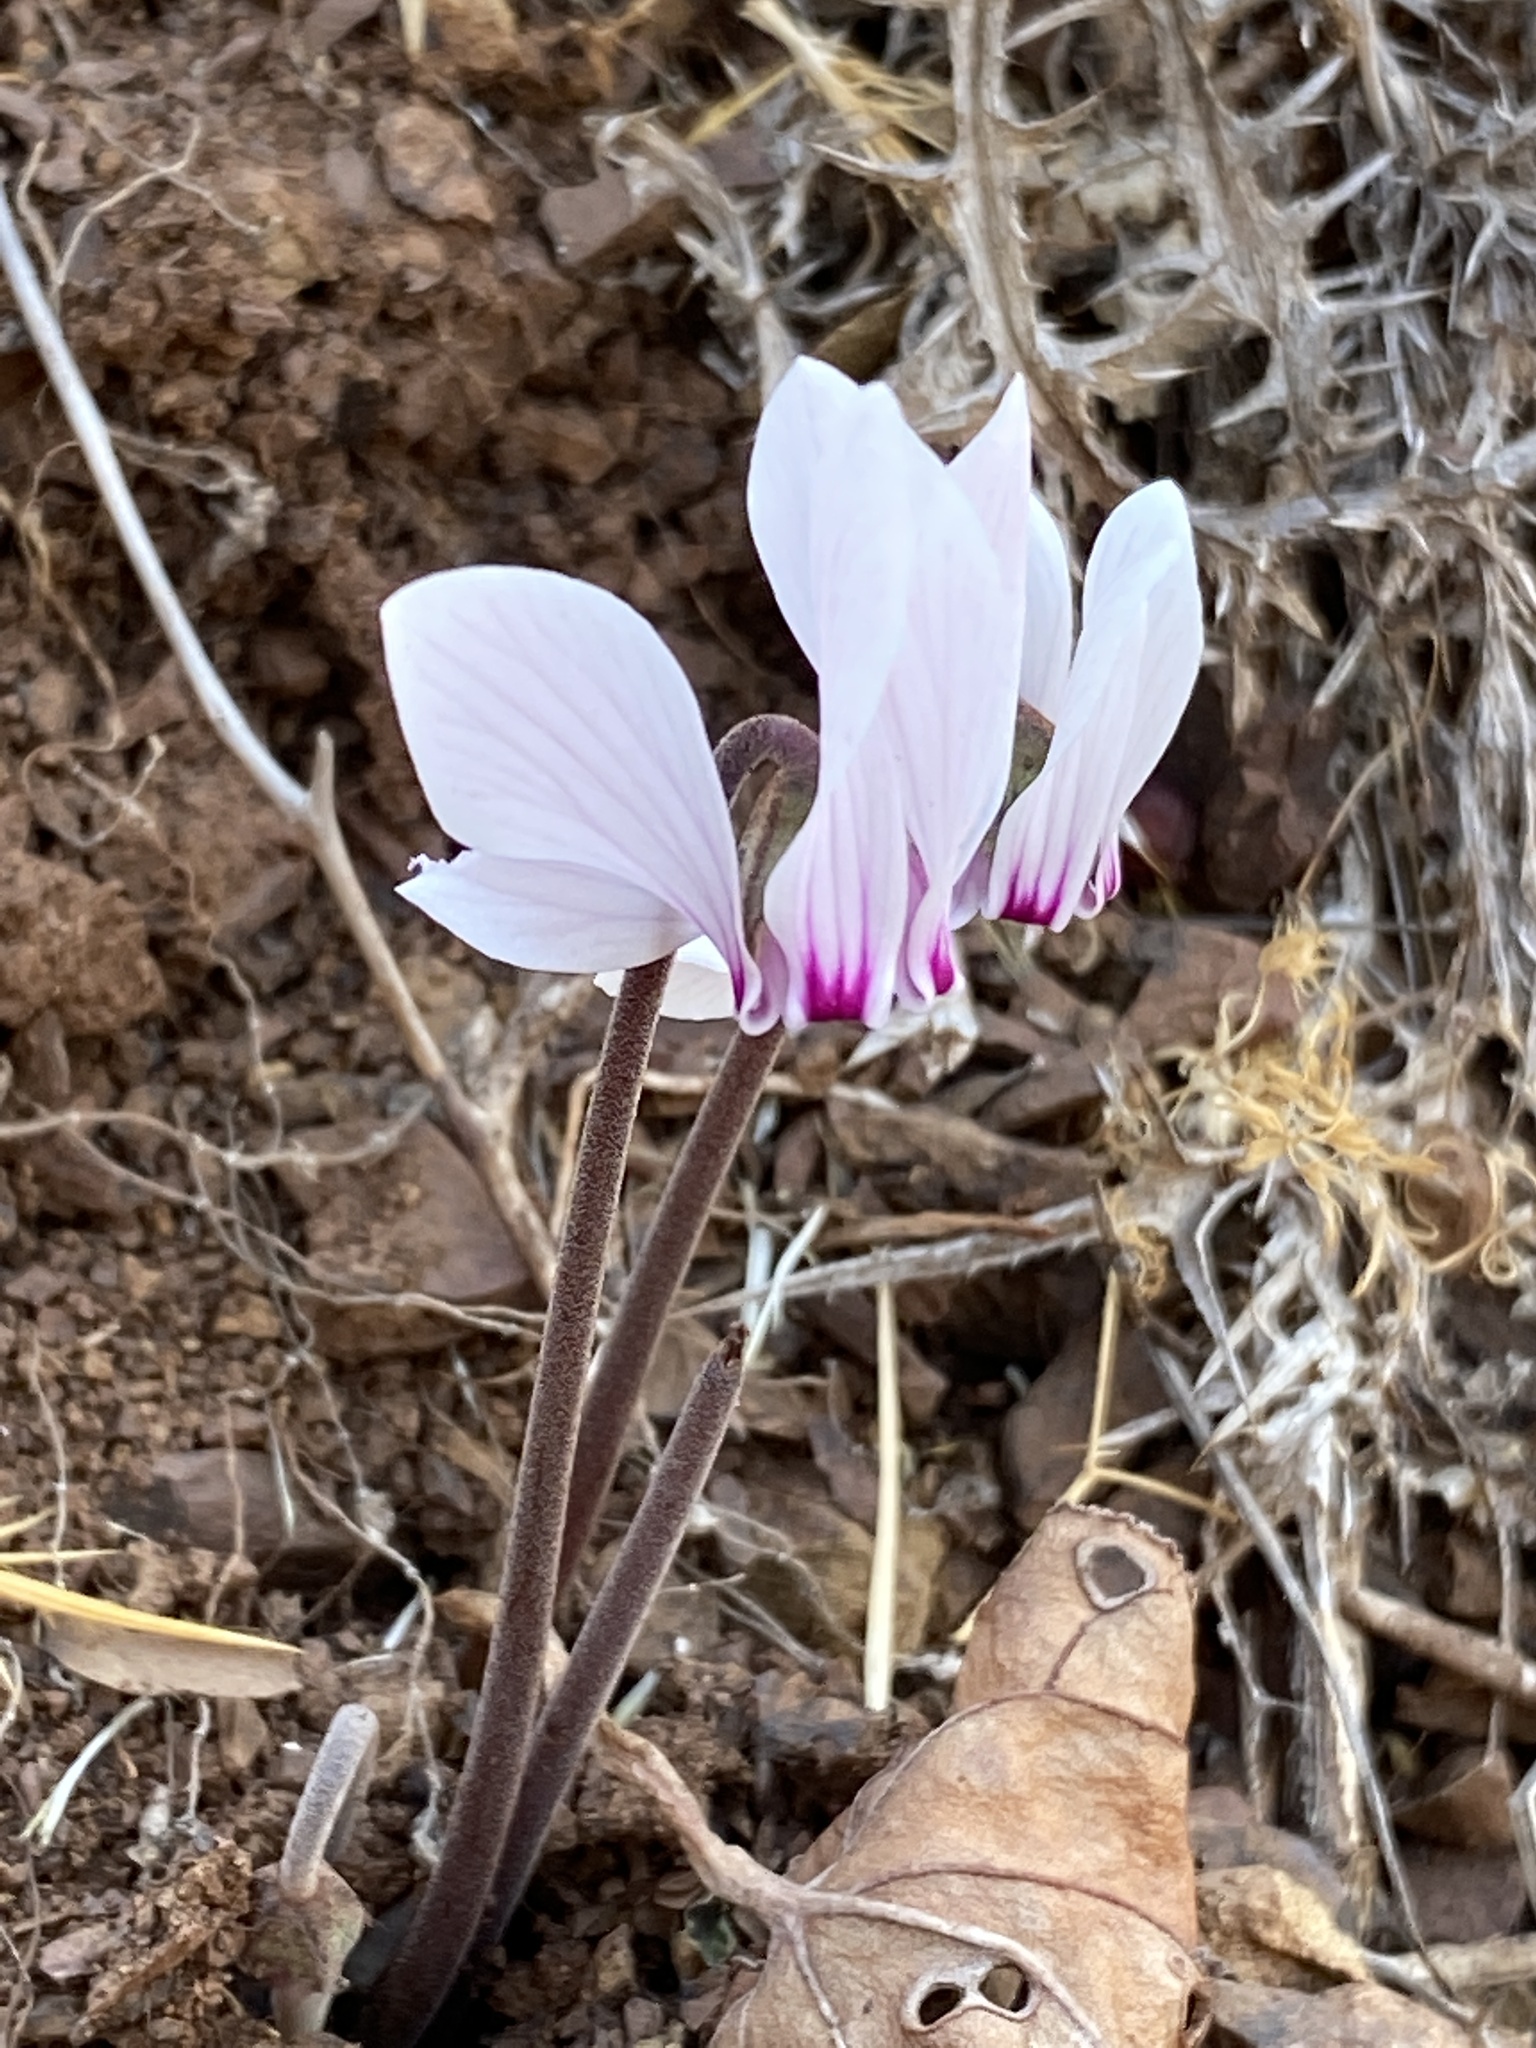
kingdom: Plantae
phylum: Tracheophyta
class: Magnoliopsida
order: Ericales
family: Primulaceae
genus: Cyclamen
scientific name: Cyclamen graecum
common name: Greek cyclamen
